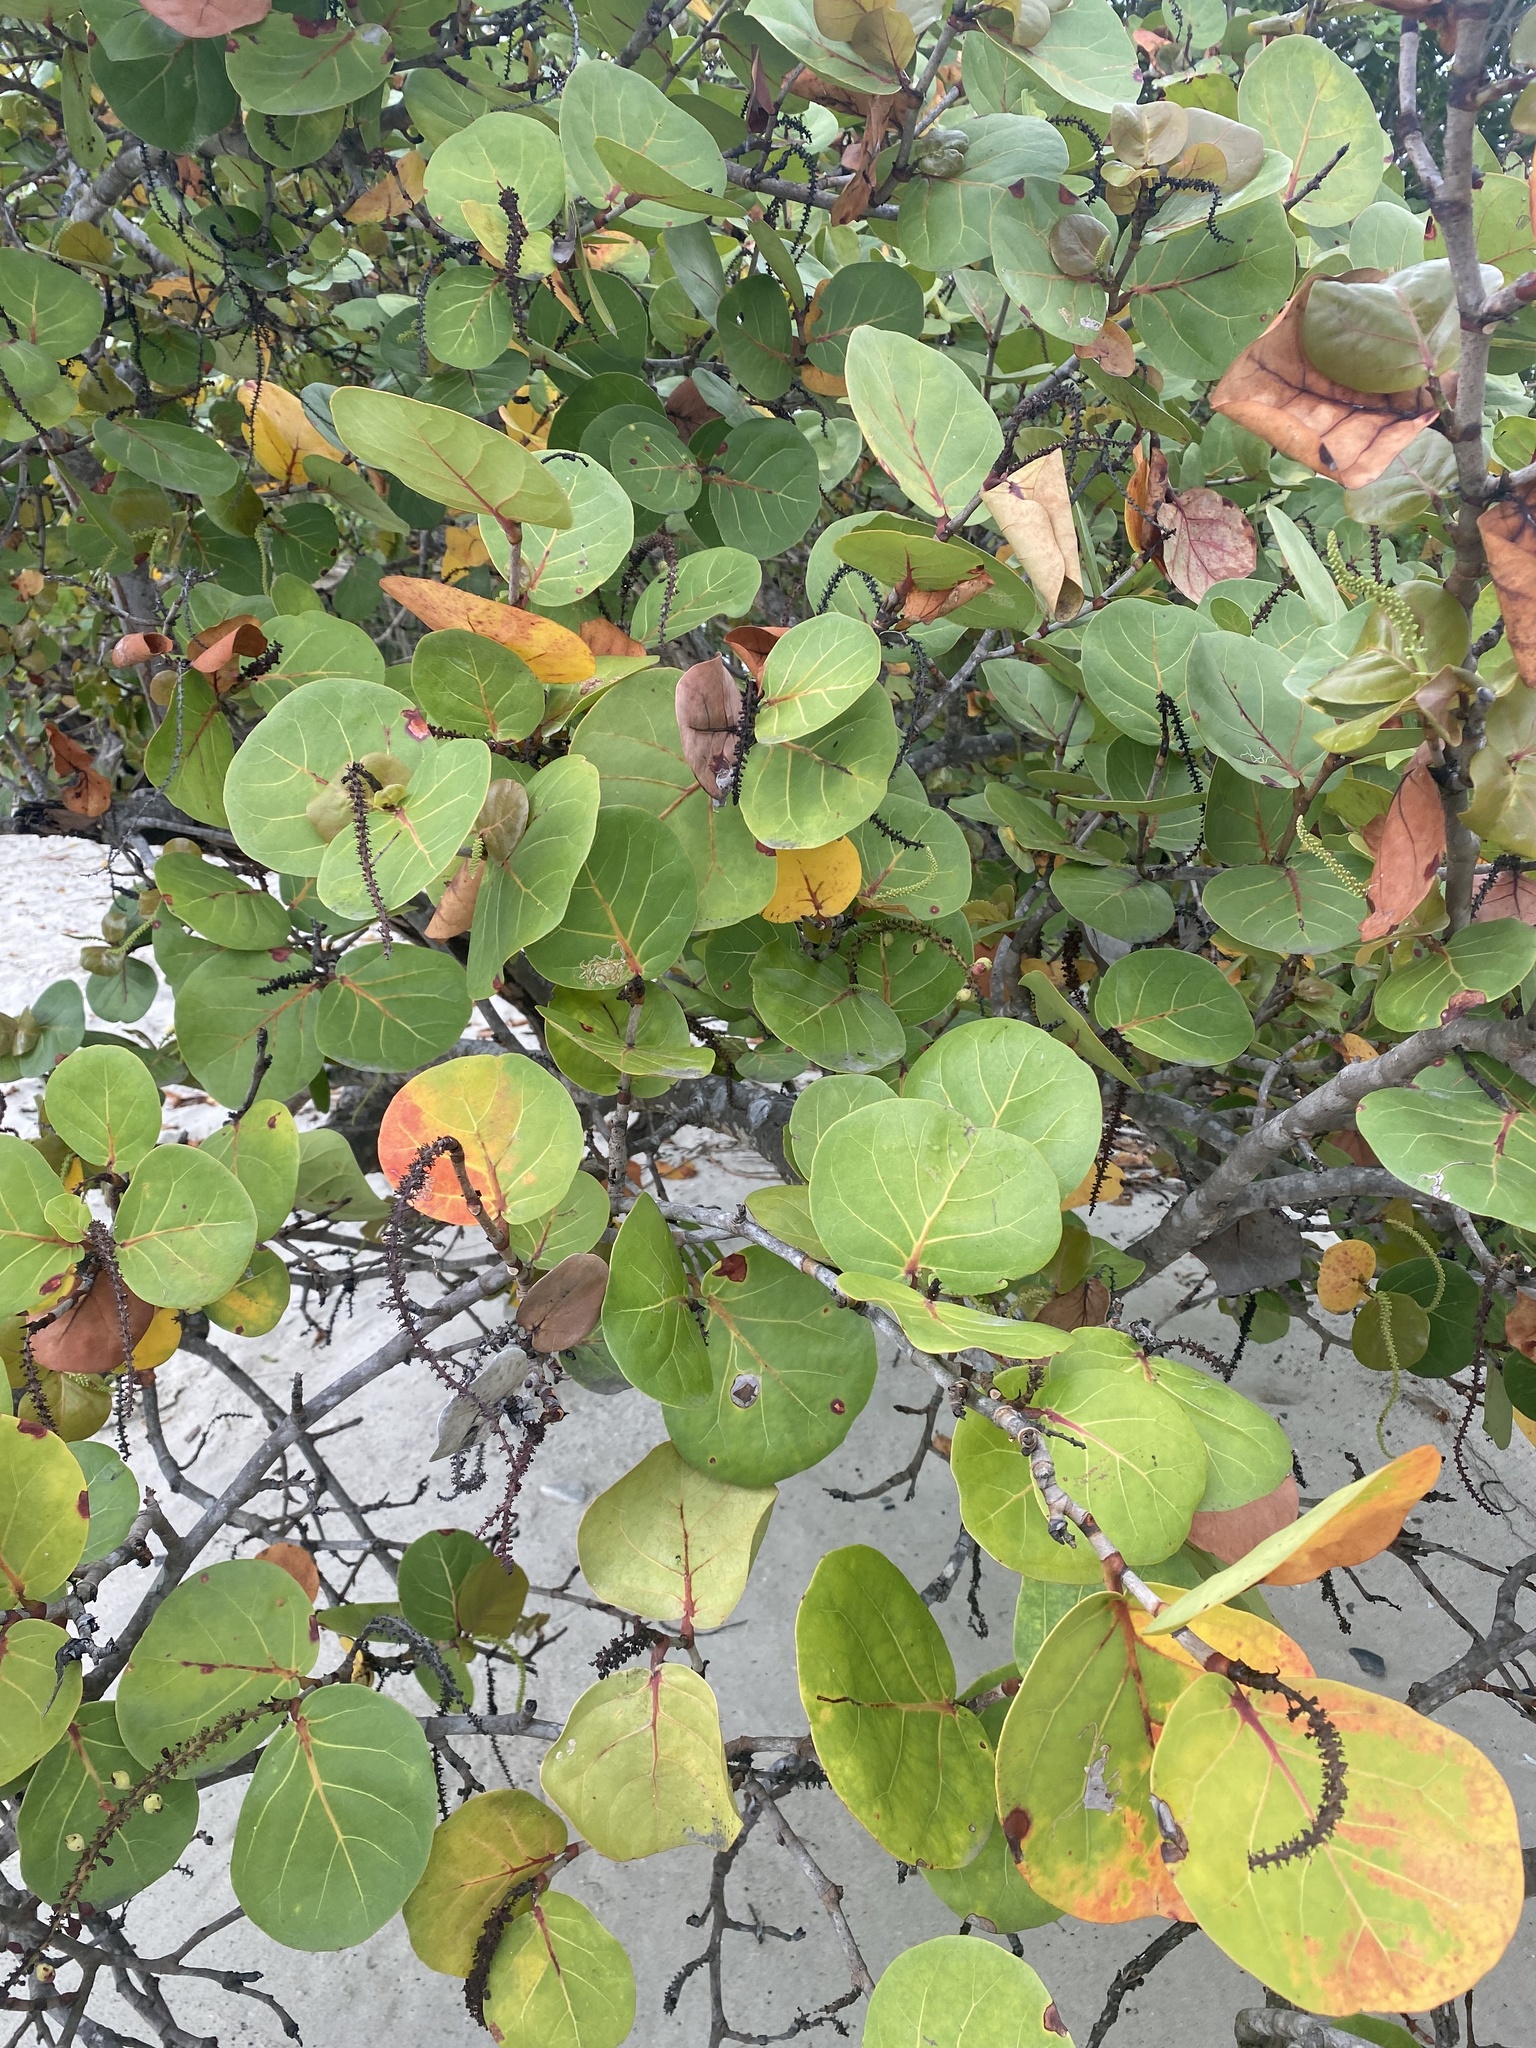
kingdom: Plantae
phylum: Tracheophyta
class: Magnoliopsida
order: Caryophyllales
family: Polygonaceae
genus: Coccoloba
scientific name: Coccoloba uvifera
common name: Seagrape
